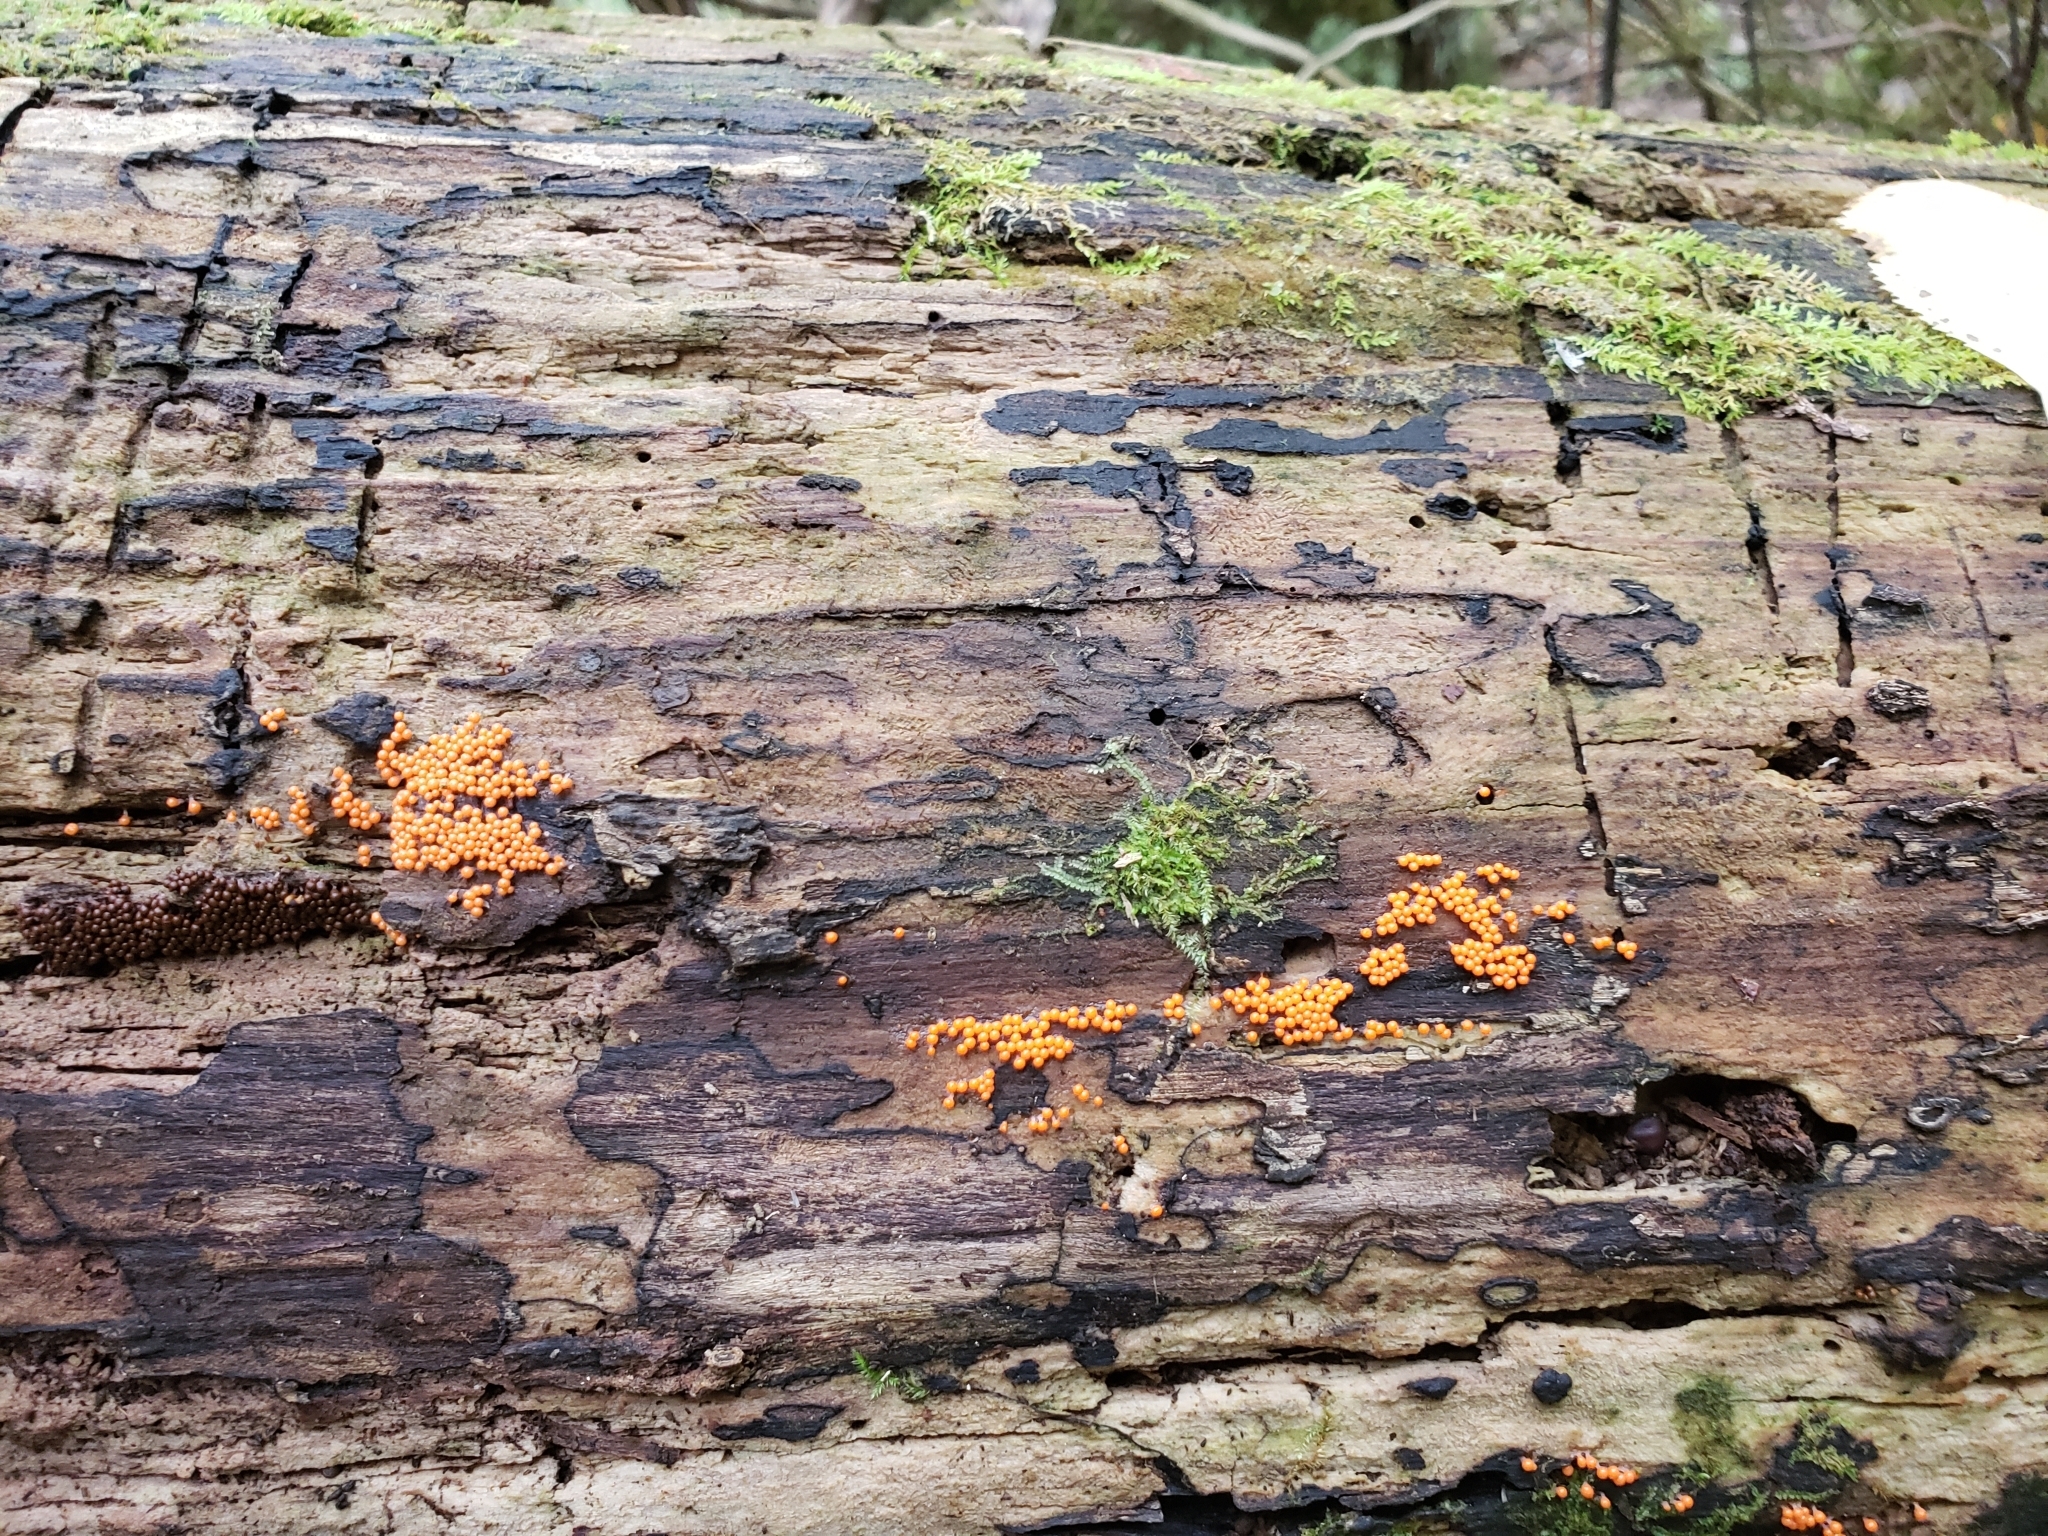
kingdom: Protozoa
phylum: Mycetozoa
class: Myxomycetes
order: Trichiales
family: Arcyriaceae
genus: Hemitrichia
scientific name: Hemitrichia decipiens
